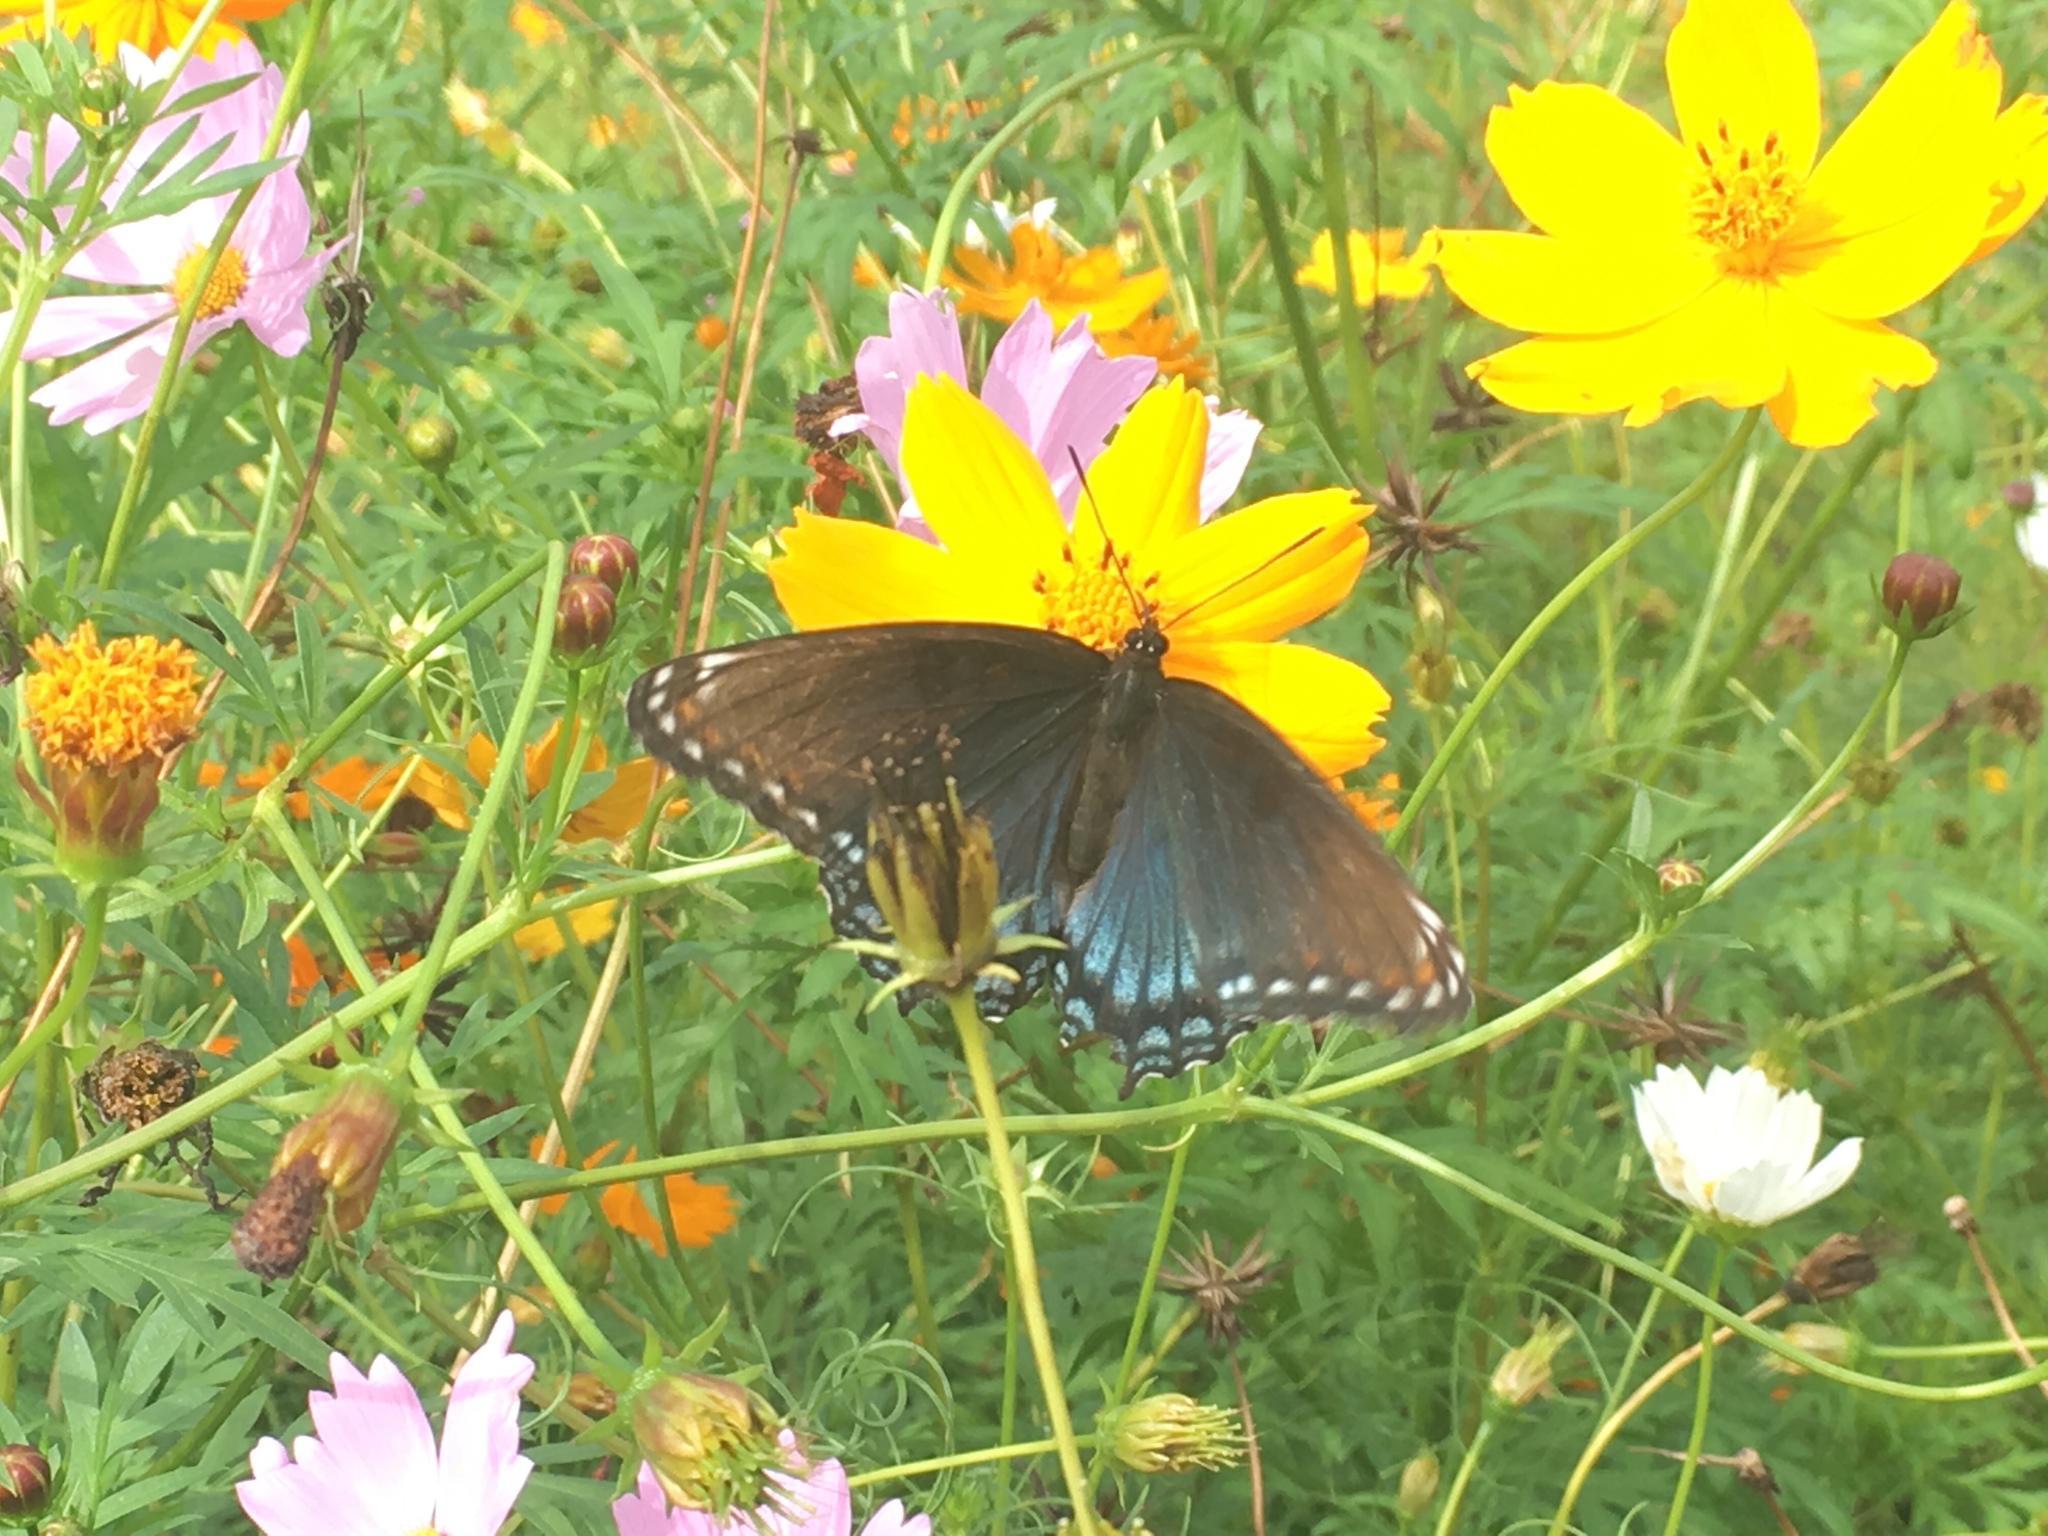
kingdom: Animalia
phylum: Arthropoda
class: Insecta
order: Lepidoptera
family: Nymphalidae
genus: Limenitis
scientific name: Limenitis arthemis
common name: Red-spotted admiral
